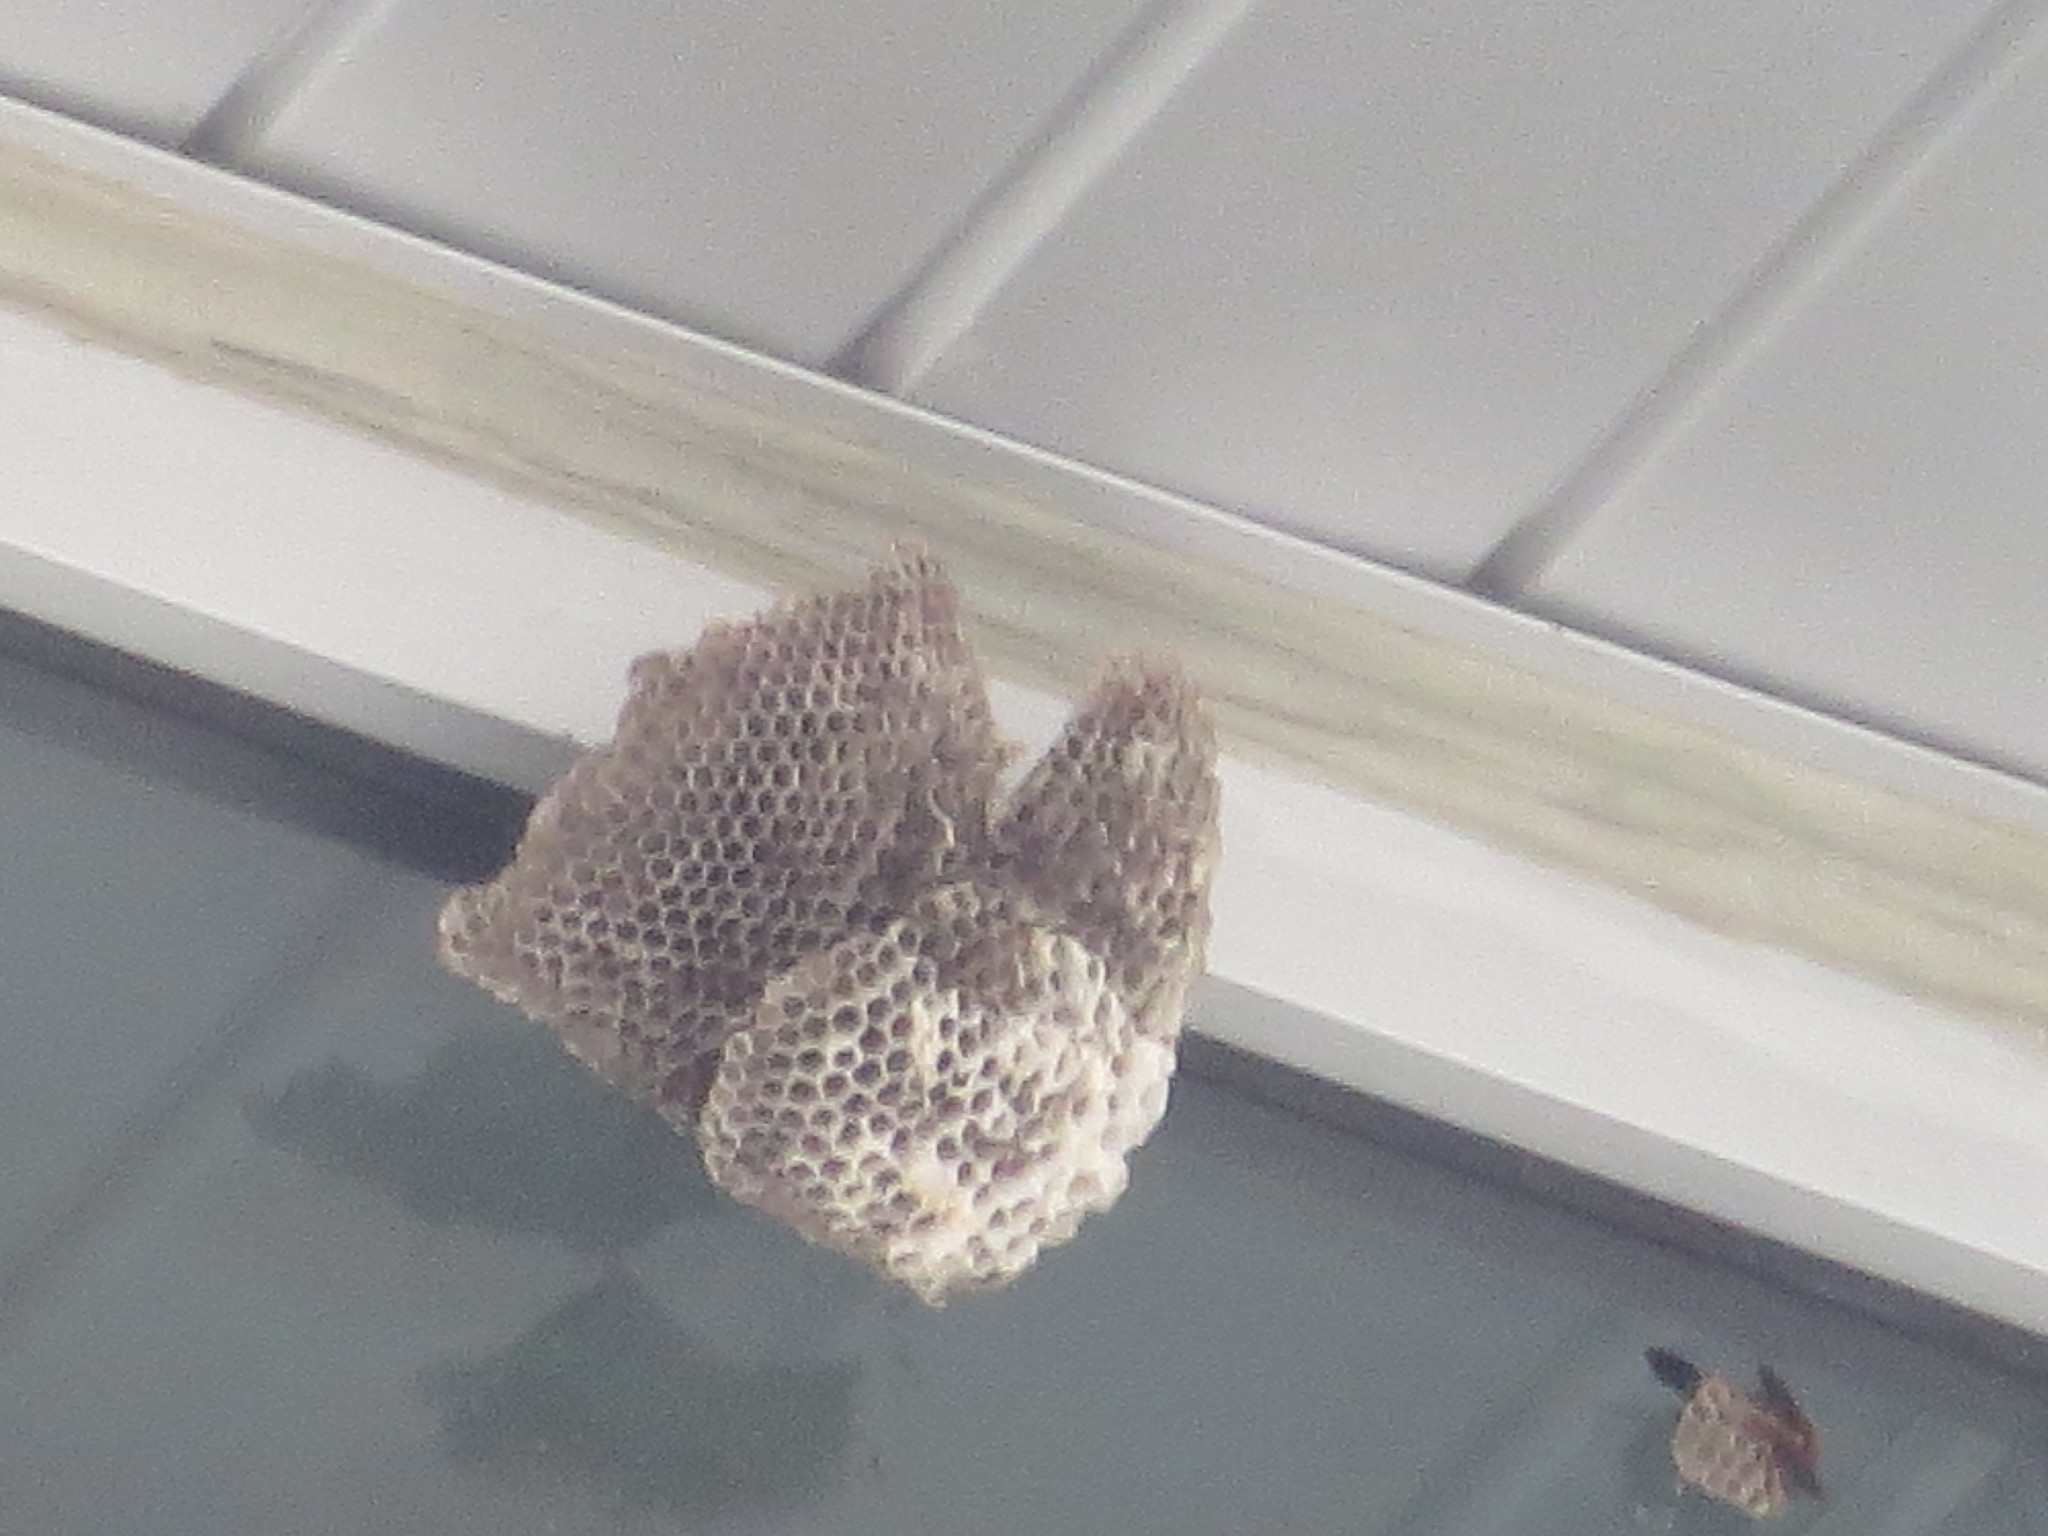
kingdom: Animalia
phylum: Arthropoda
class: Insecta
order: Hymenoptera
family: Eumenidae
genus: Polistes
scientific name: Polistes
